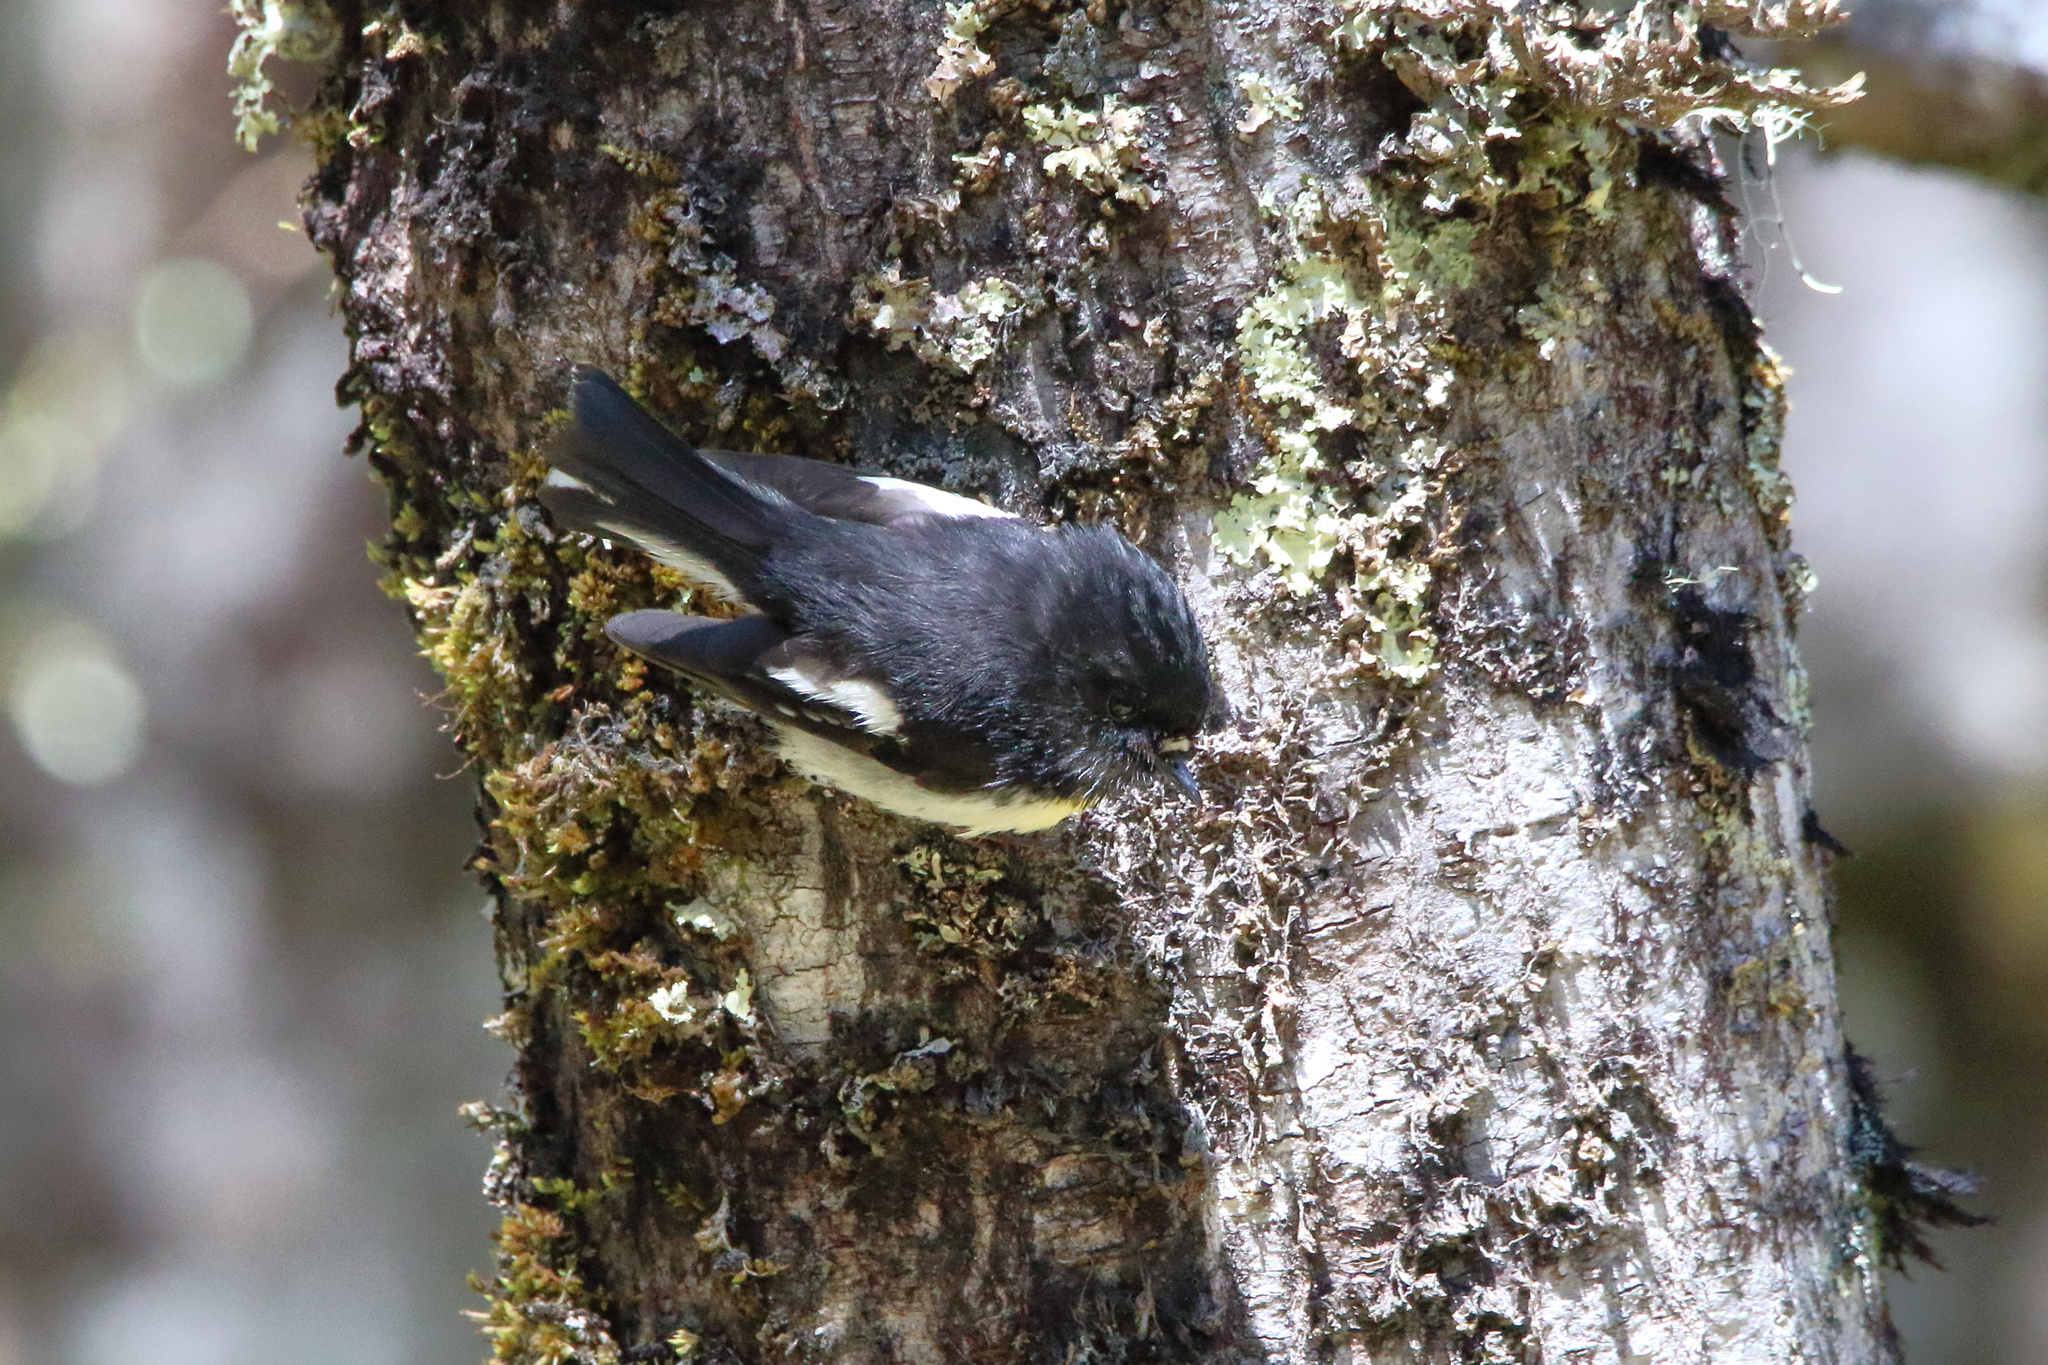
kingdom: Animalia
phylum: Chordata
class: Aves
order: Passeriformes
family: Petroicidae
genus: Petroica
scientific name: Petroica macrocephala
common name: Tomtit
